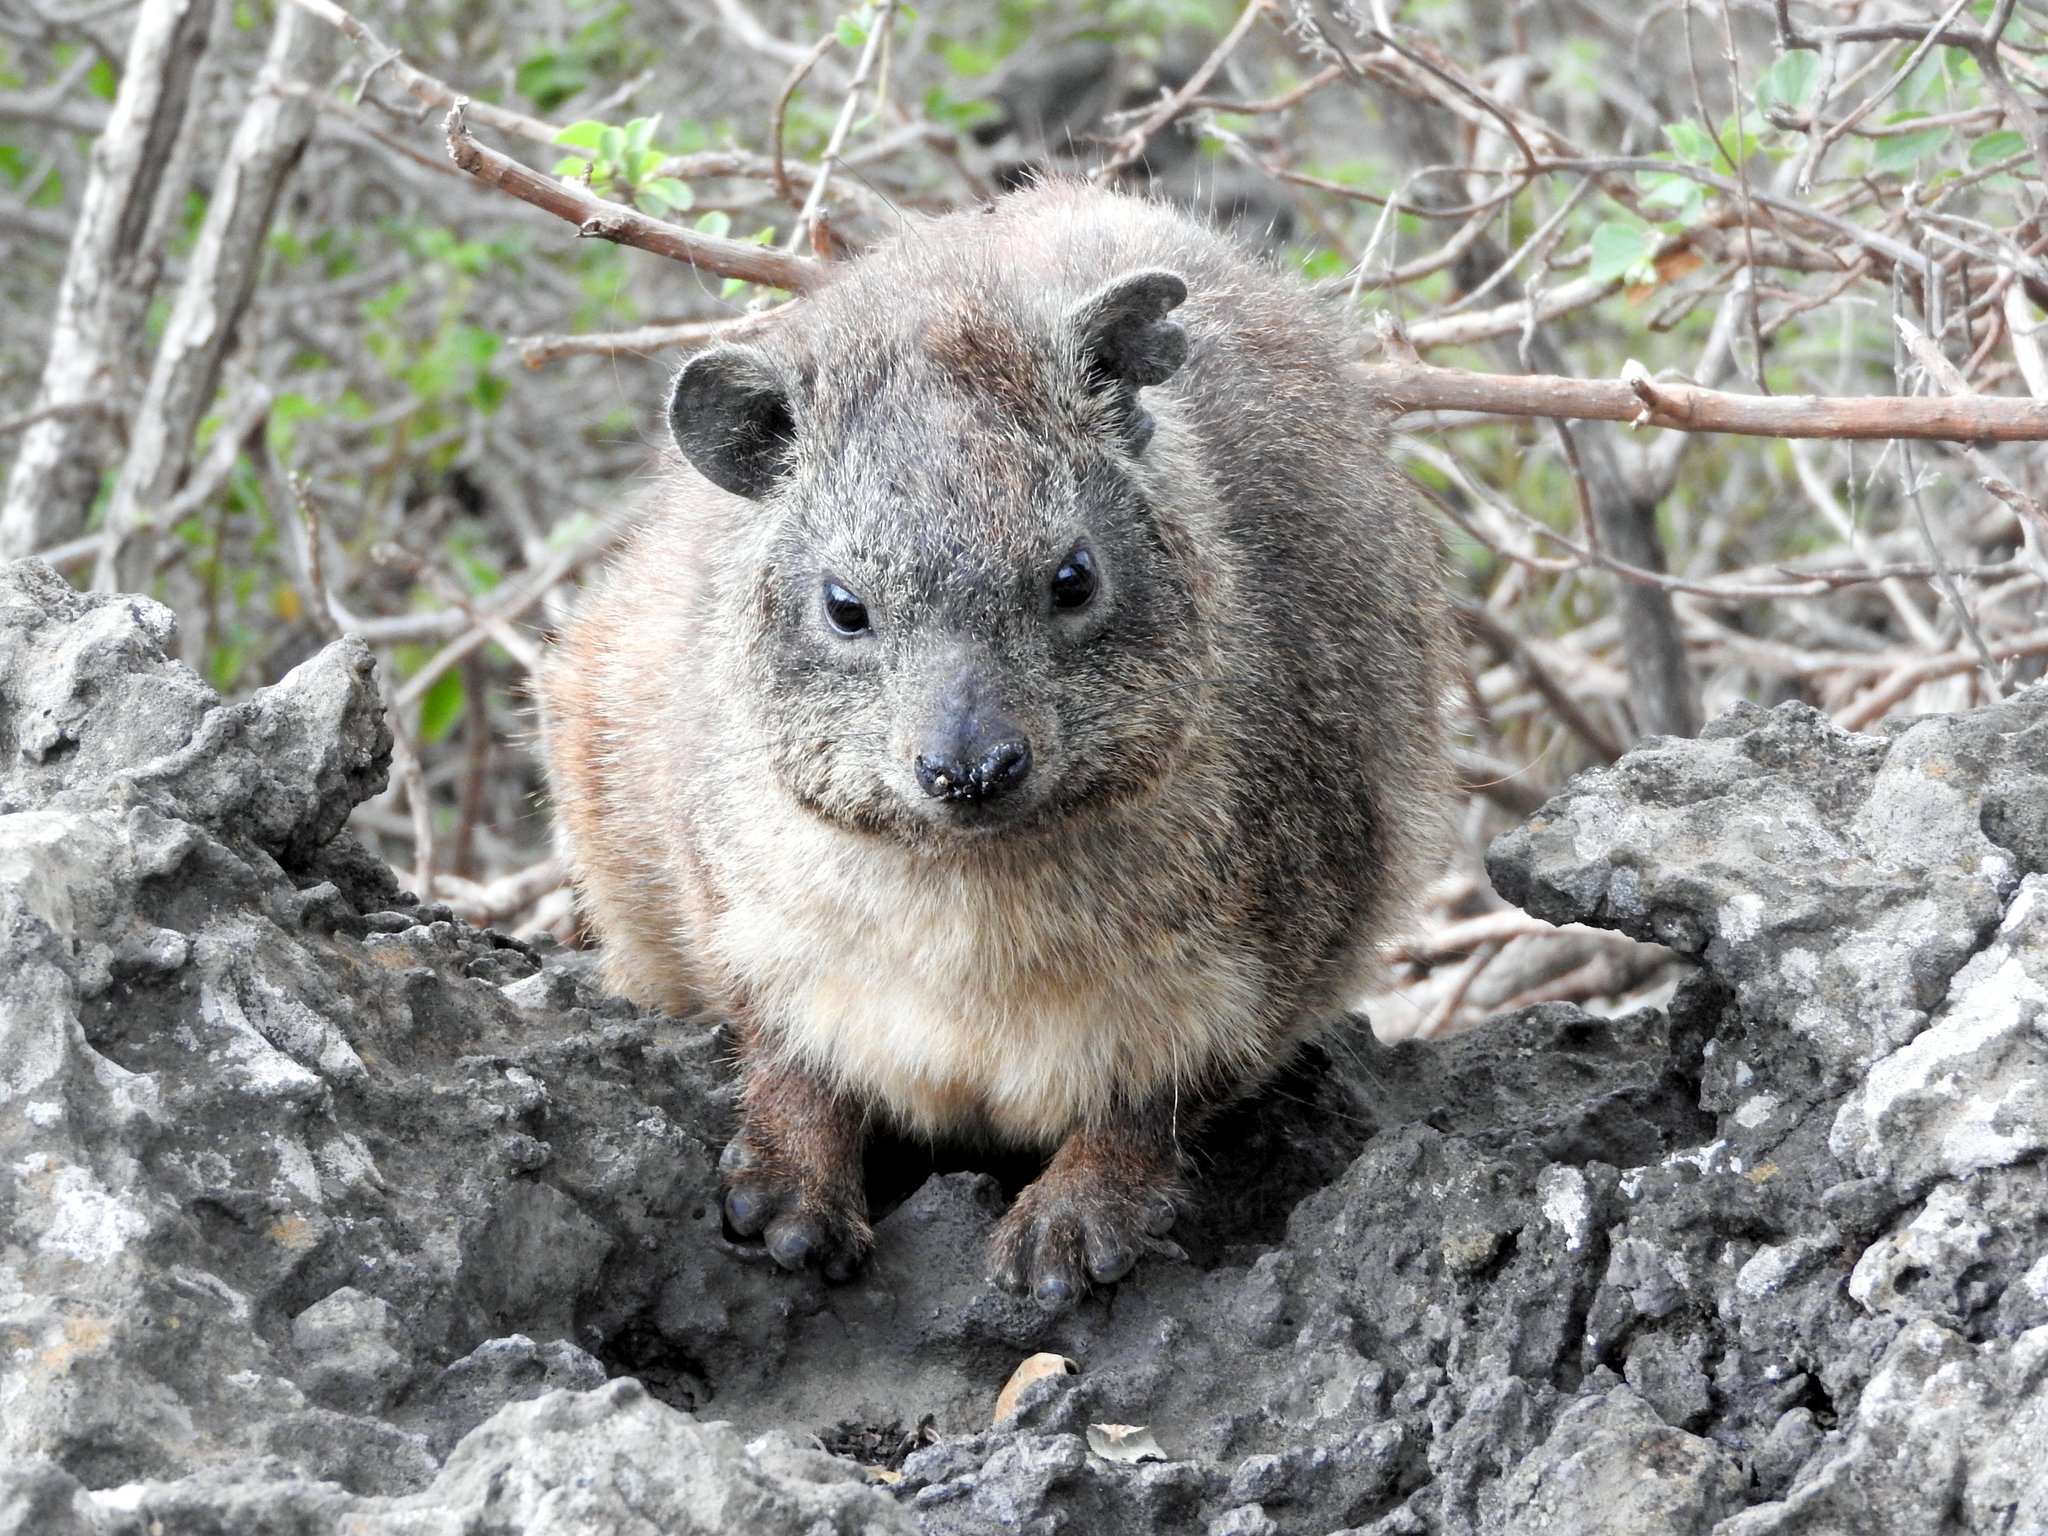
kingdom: Animalia
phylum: Chordata
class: Mammalia
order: Hyracoidea
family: Procaviidae
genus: Procavia
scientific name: Procavia capensis
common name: Rock hyrax
